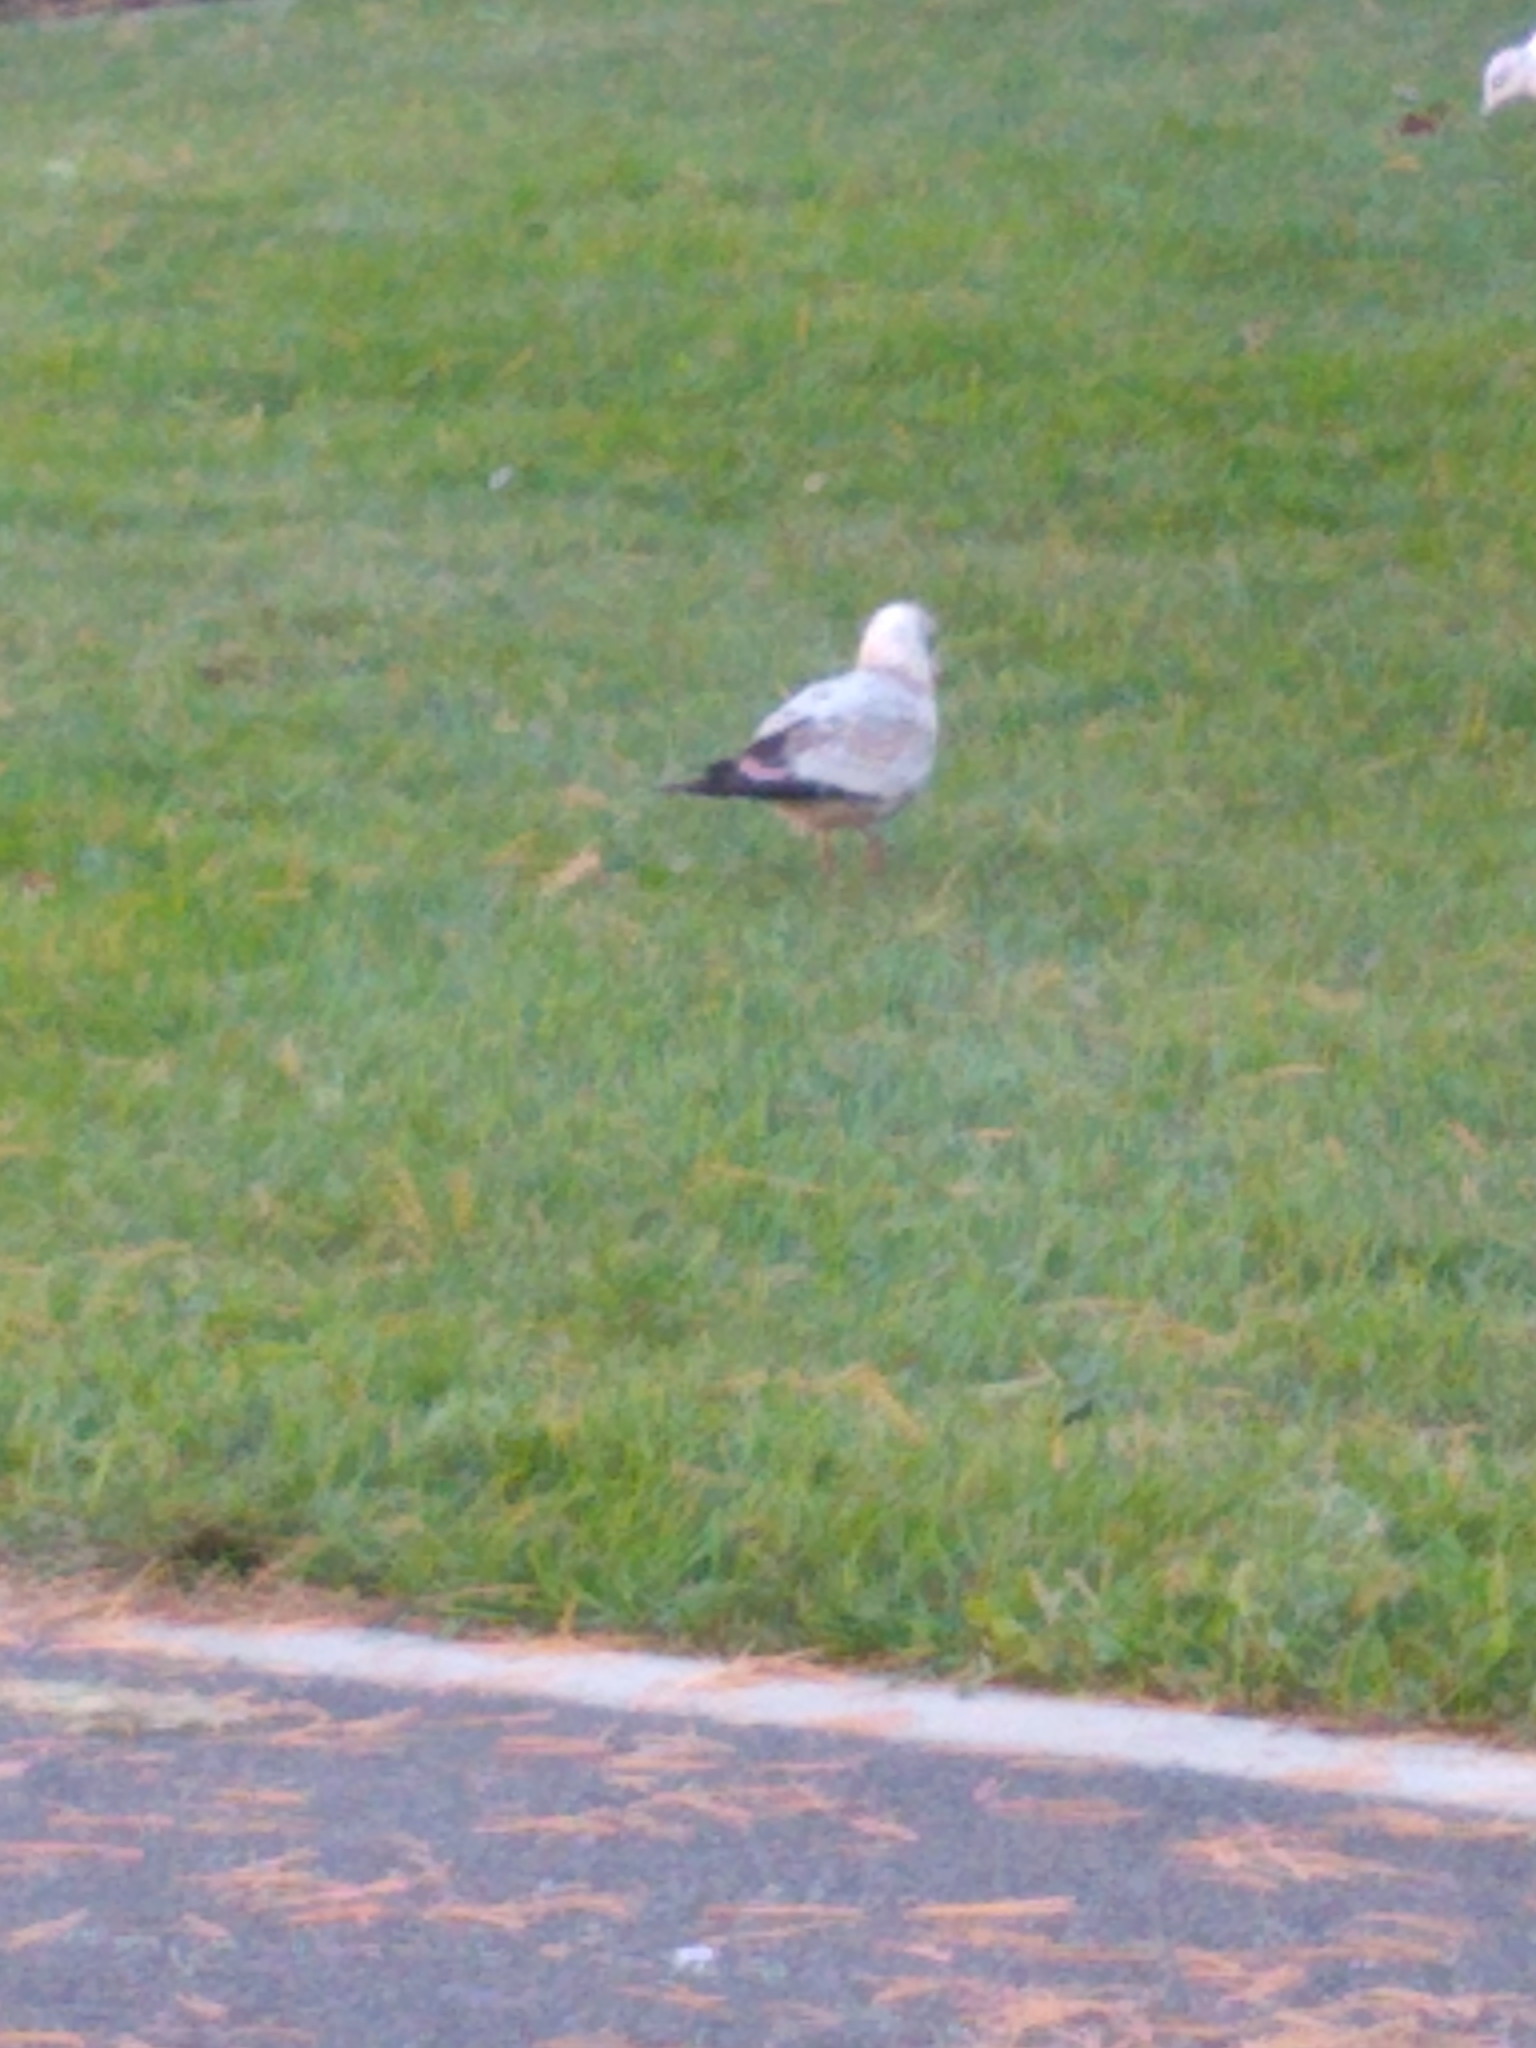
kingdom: Animalia
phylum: Chordata
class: Aves
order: Charadriiformes
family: Laridae
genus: Larus
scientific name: Larus delawarensis
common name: Ring-billed gull
